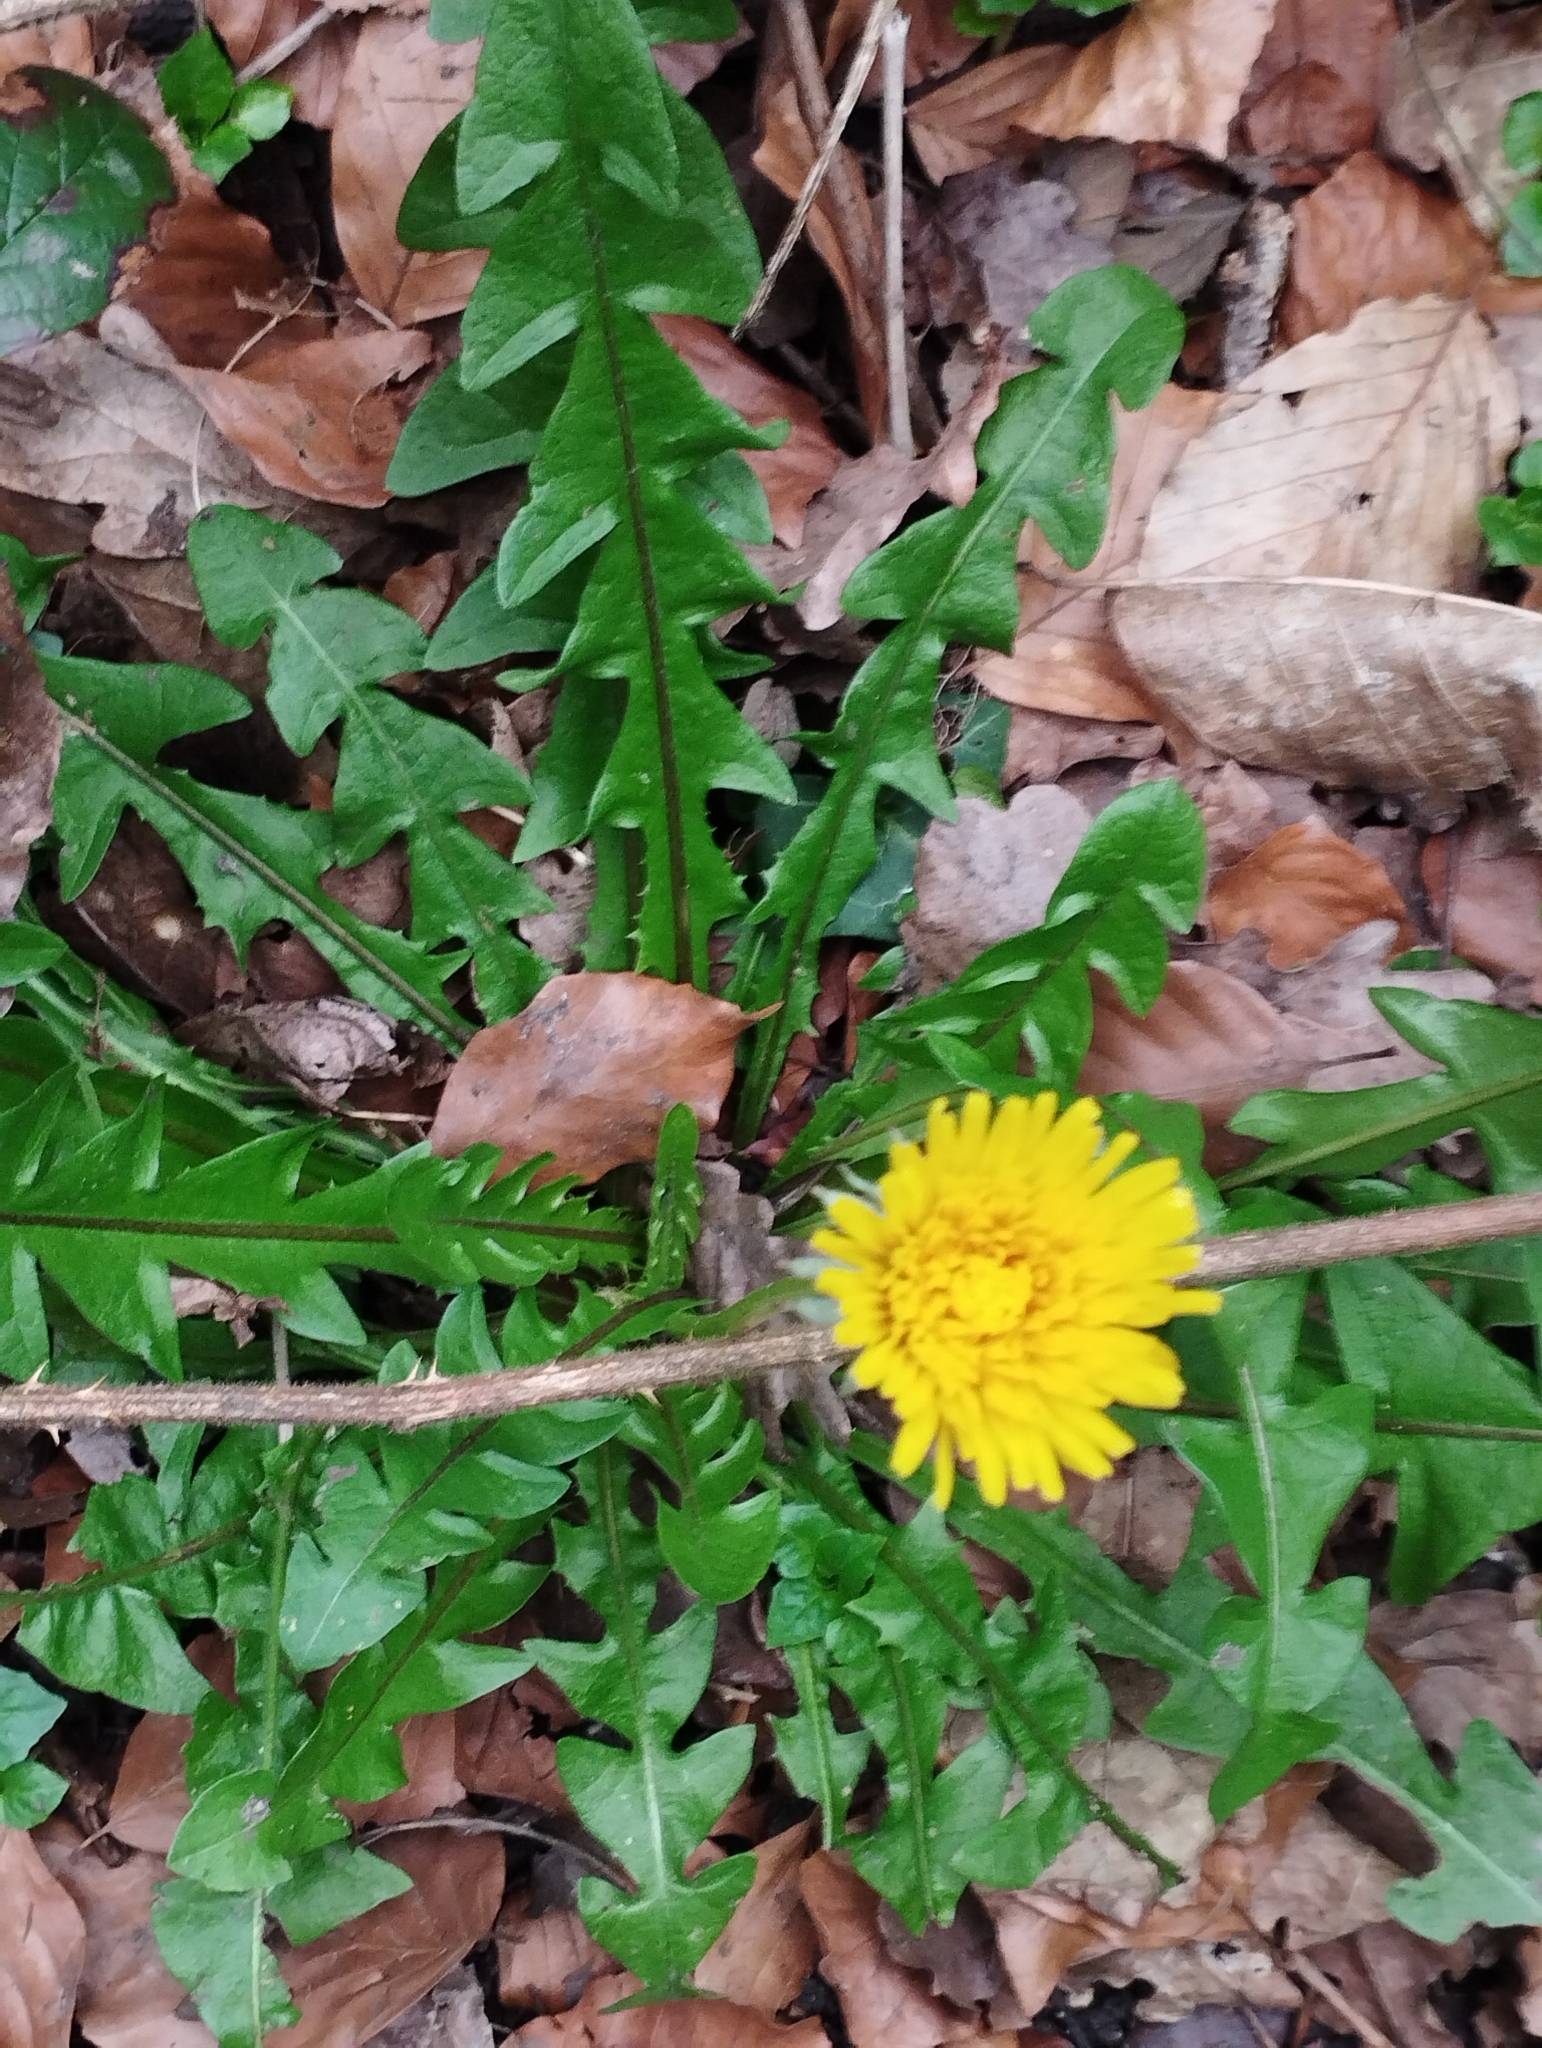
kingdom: Plantae
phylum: Tracheophyta
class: Magnoliopsida
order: Asterales
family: Asteraceae
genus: Taraxacum
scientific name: Taraxacum officinale
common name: Common dandelion
